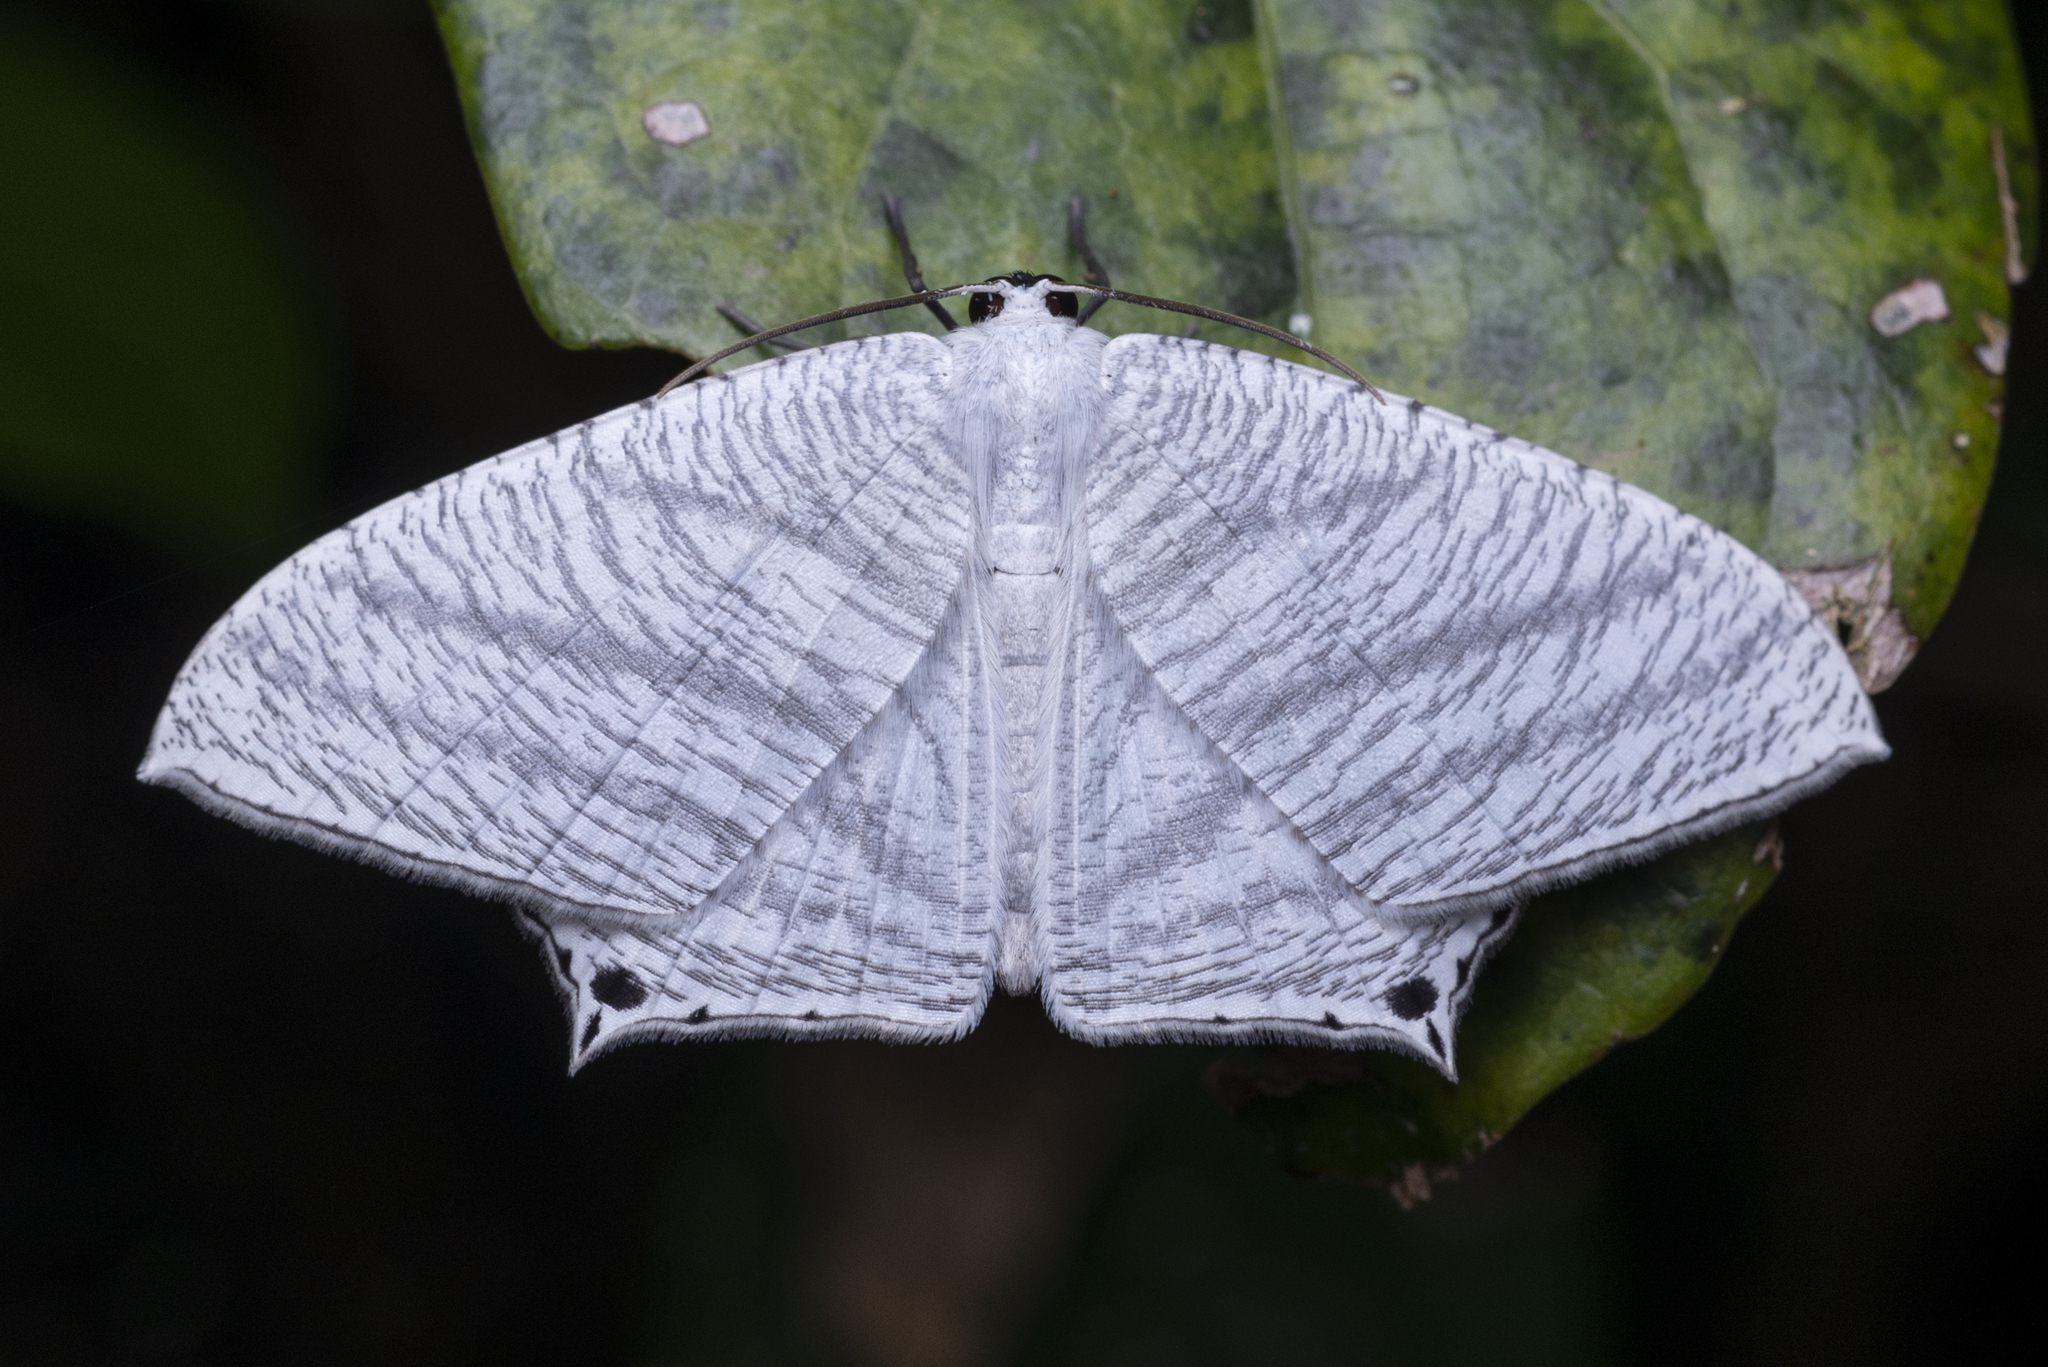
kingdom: Animalia
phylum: Arthropoda
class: Insecta
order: Lepidoptera
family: Uraniidae
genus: Micronia
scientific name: Micronia aculeata
